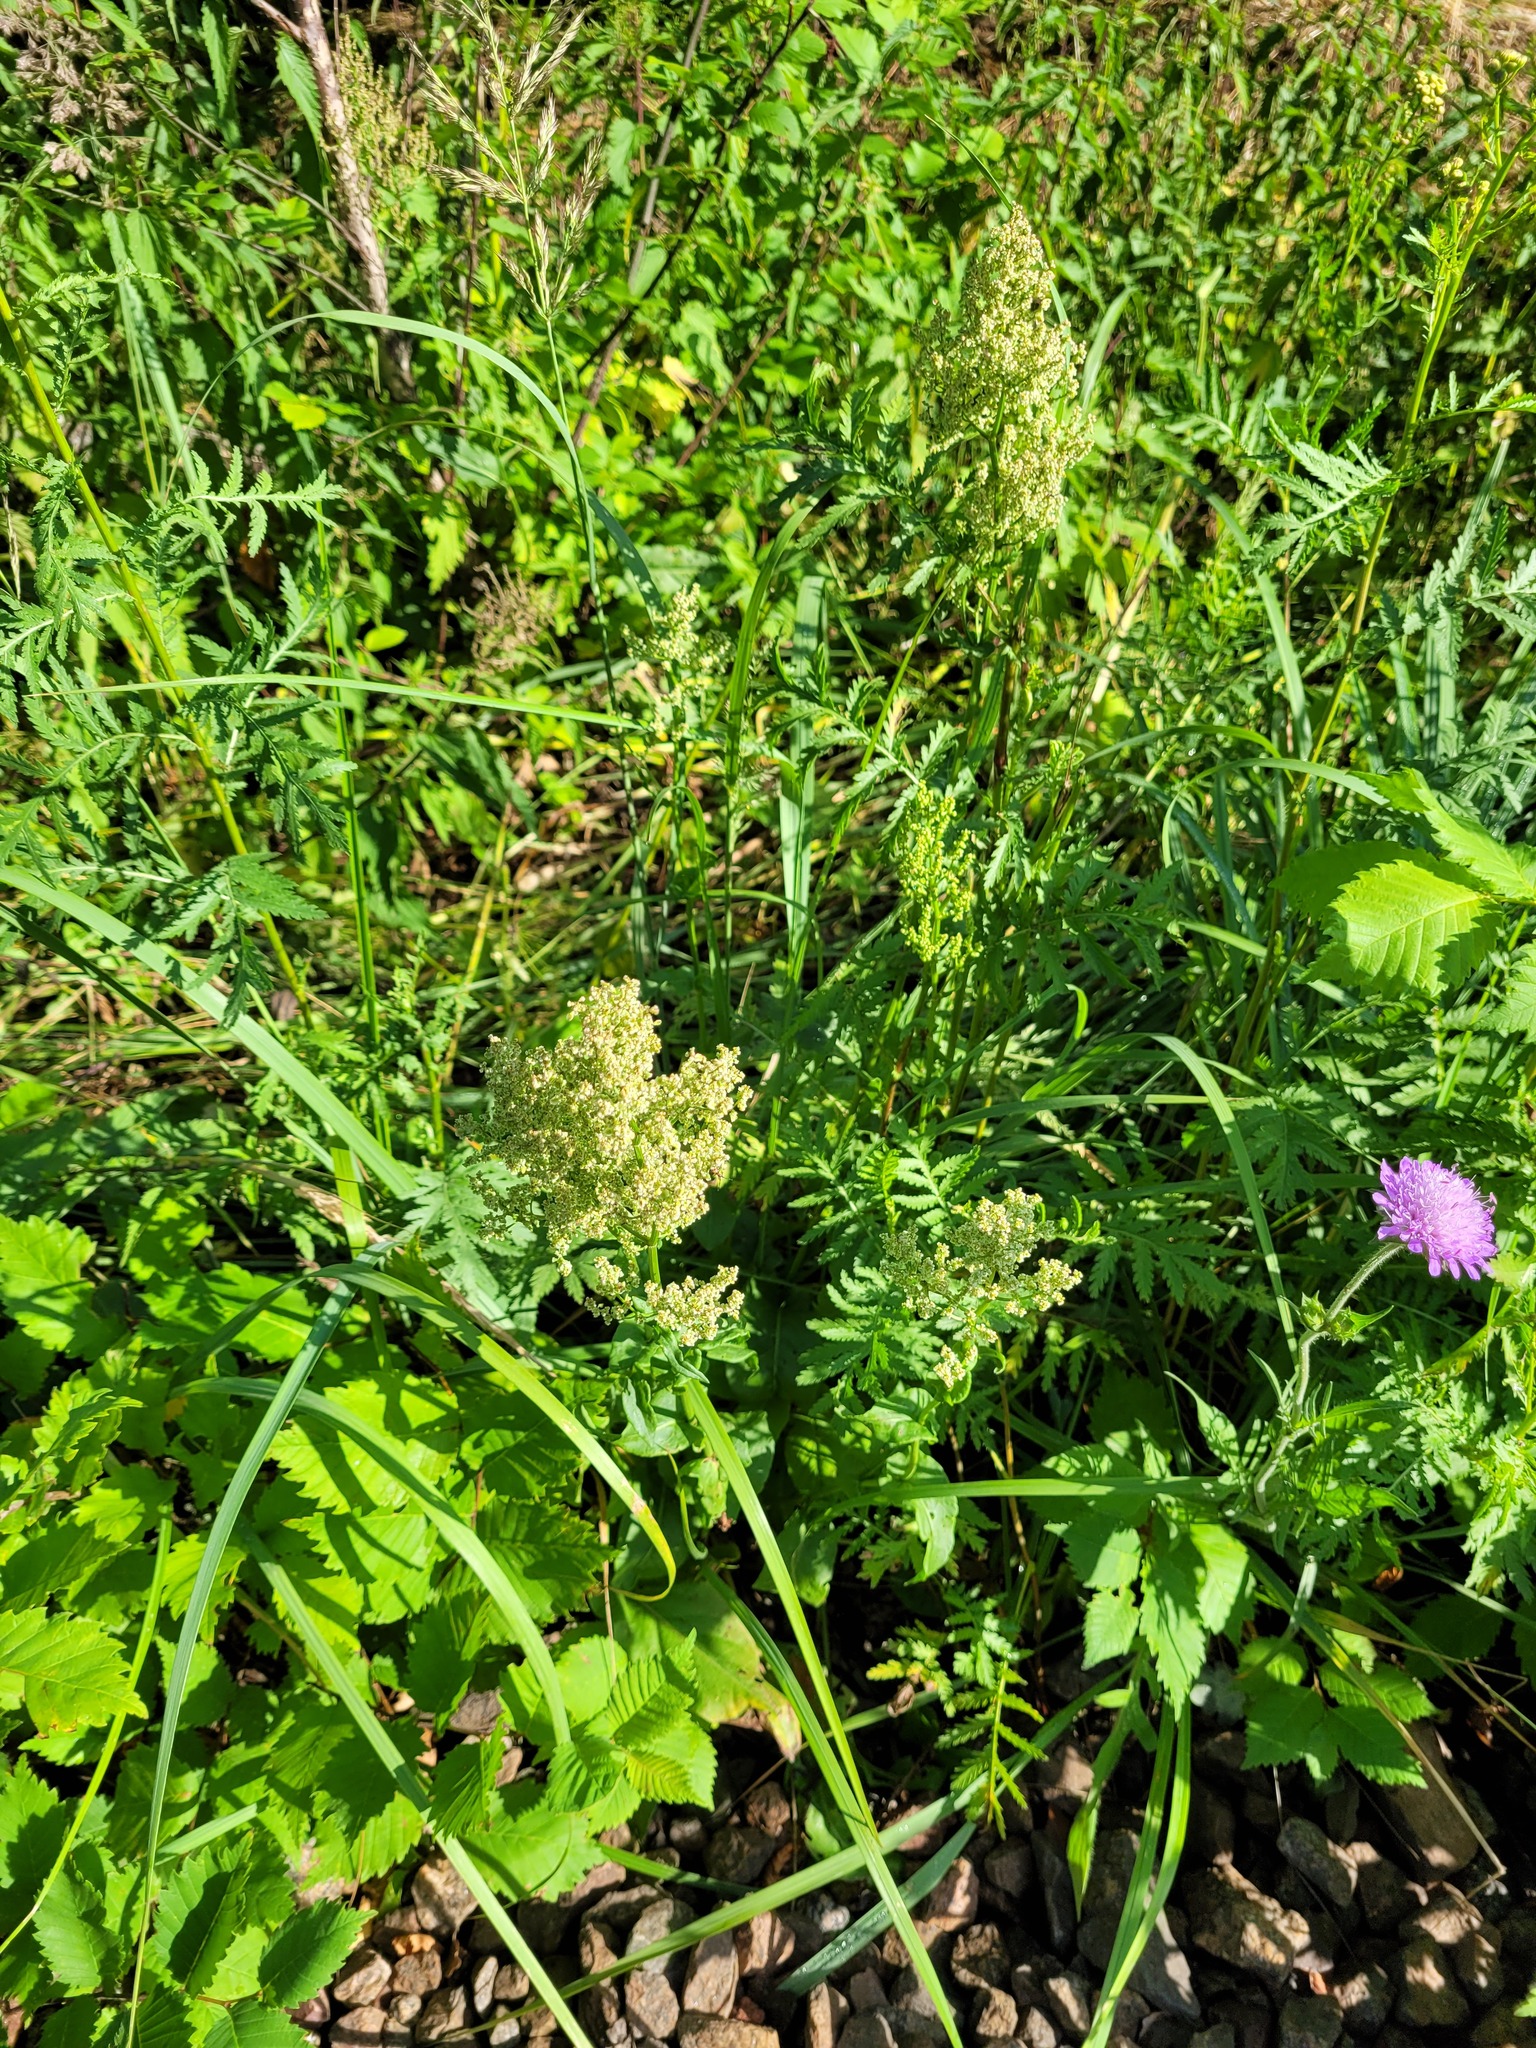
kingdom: Plantae
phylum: Tracheophyta
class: Magnoliopsida
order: Caryophyllales
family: Polygonaceae
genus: Rumex
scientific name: Rumex thyrsiflorus
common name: Garden sorrel
